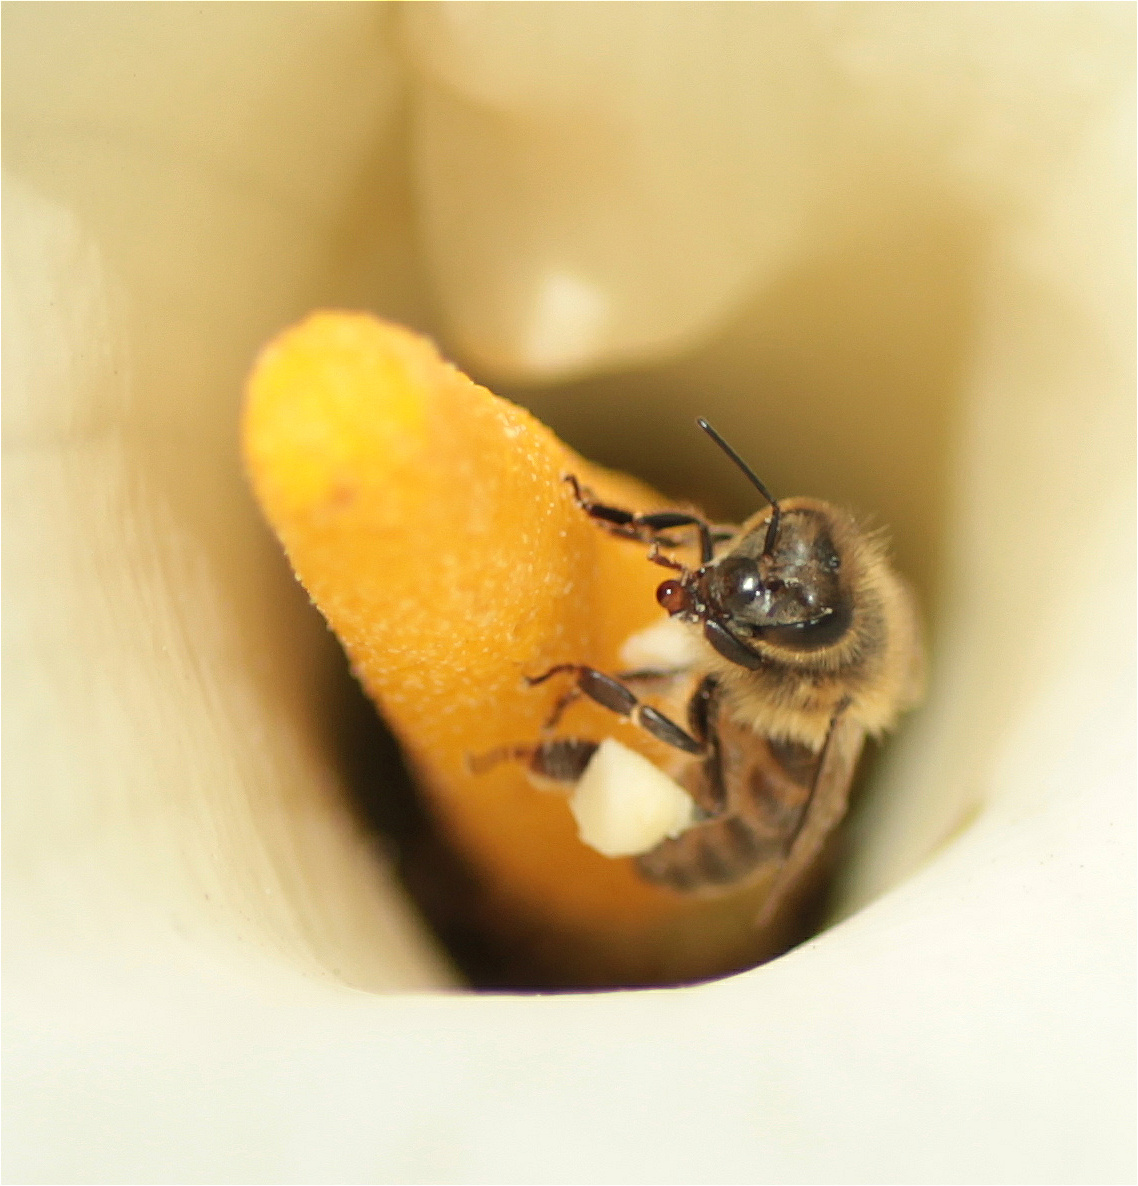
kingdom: Animalia
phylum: Arthropoda
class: Insecta
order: Hymenoptera
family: Apidae
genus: Apis
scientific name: Apis mellifera
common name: Honey bee
